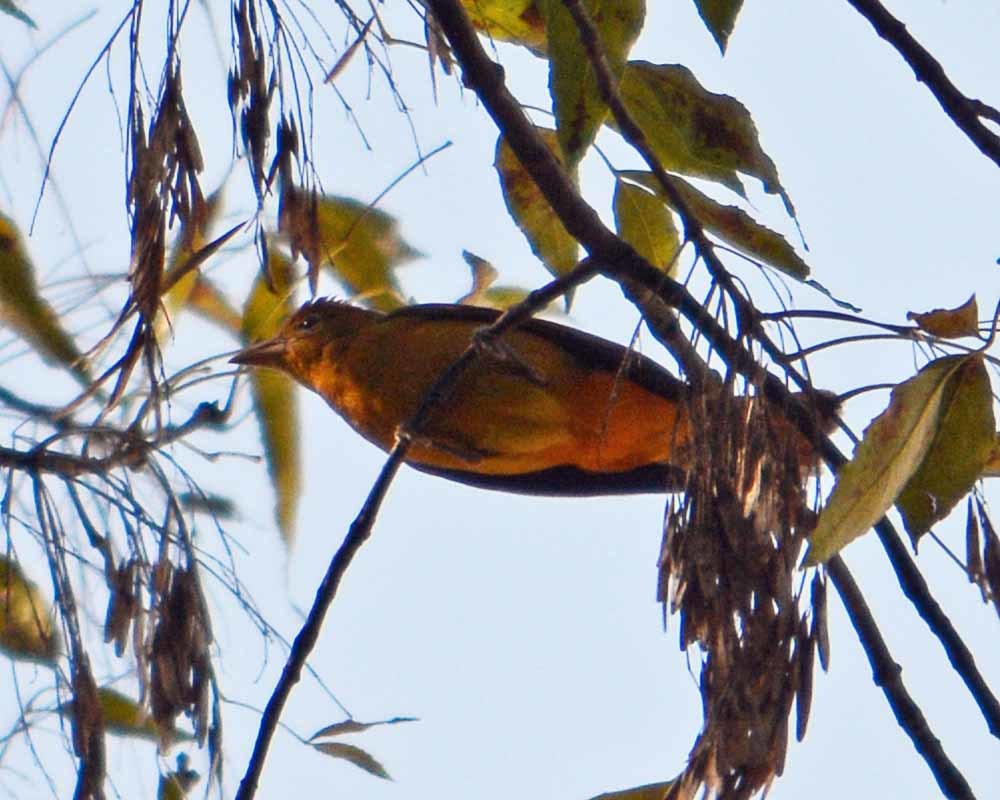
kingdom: Animalia
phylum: Chordata
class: Aves
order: Passeriformes
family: Cardinalidae
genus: Piranga
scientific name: Piranga rubra
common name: Summer tanager
